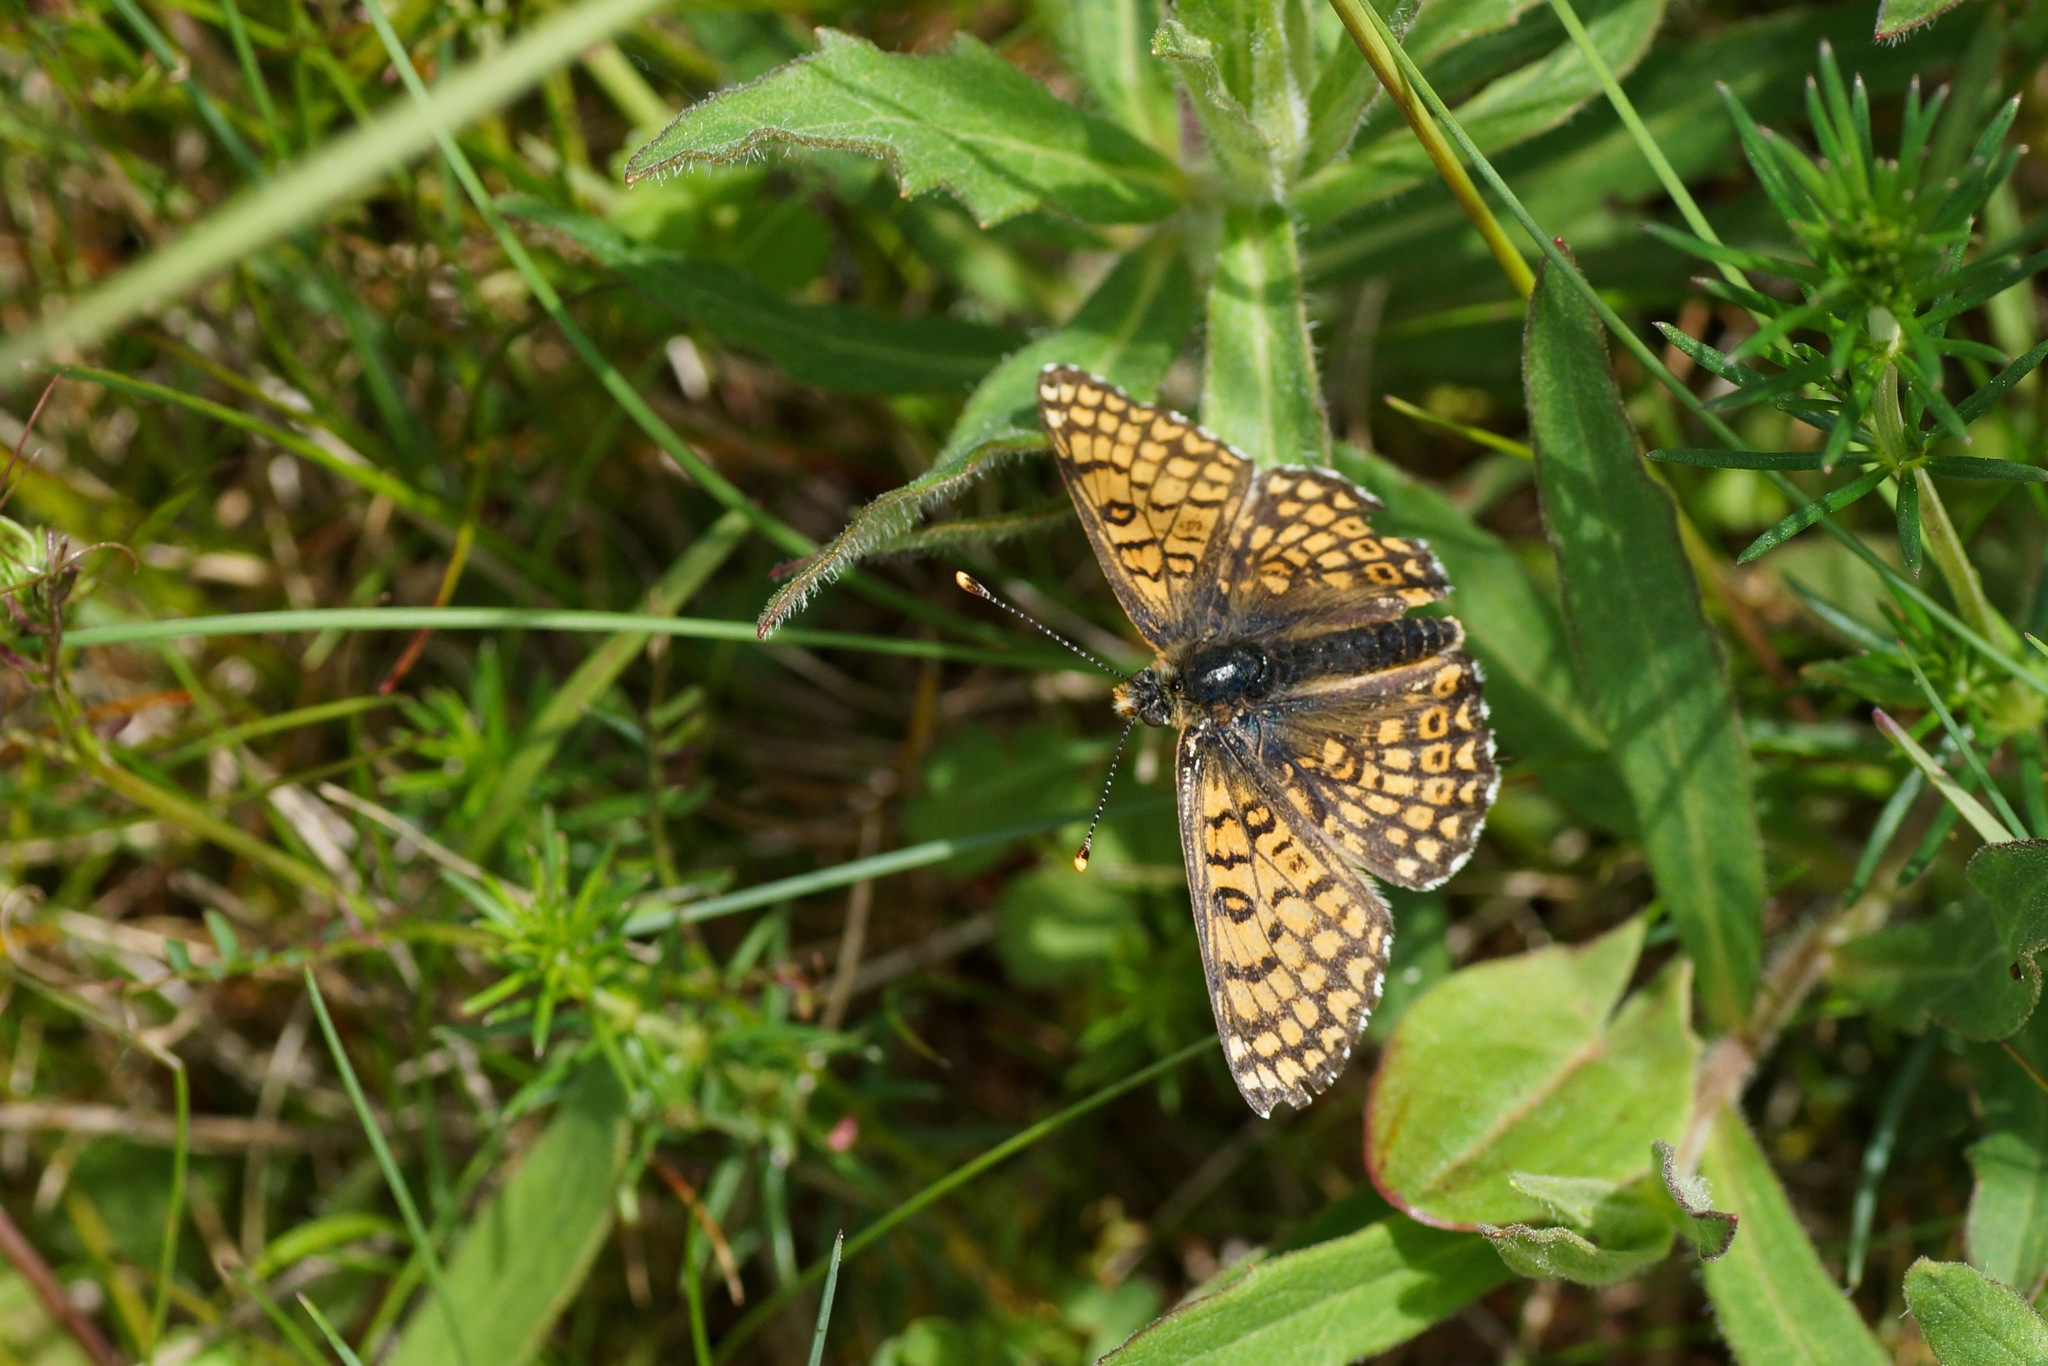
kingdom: Animalia
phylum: Arthropoda
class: Insecta
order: Lepidoptera
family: Nymphalidae
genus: Melitaea
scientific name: Melitaea cinxia
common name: Glanville fritillary
